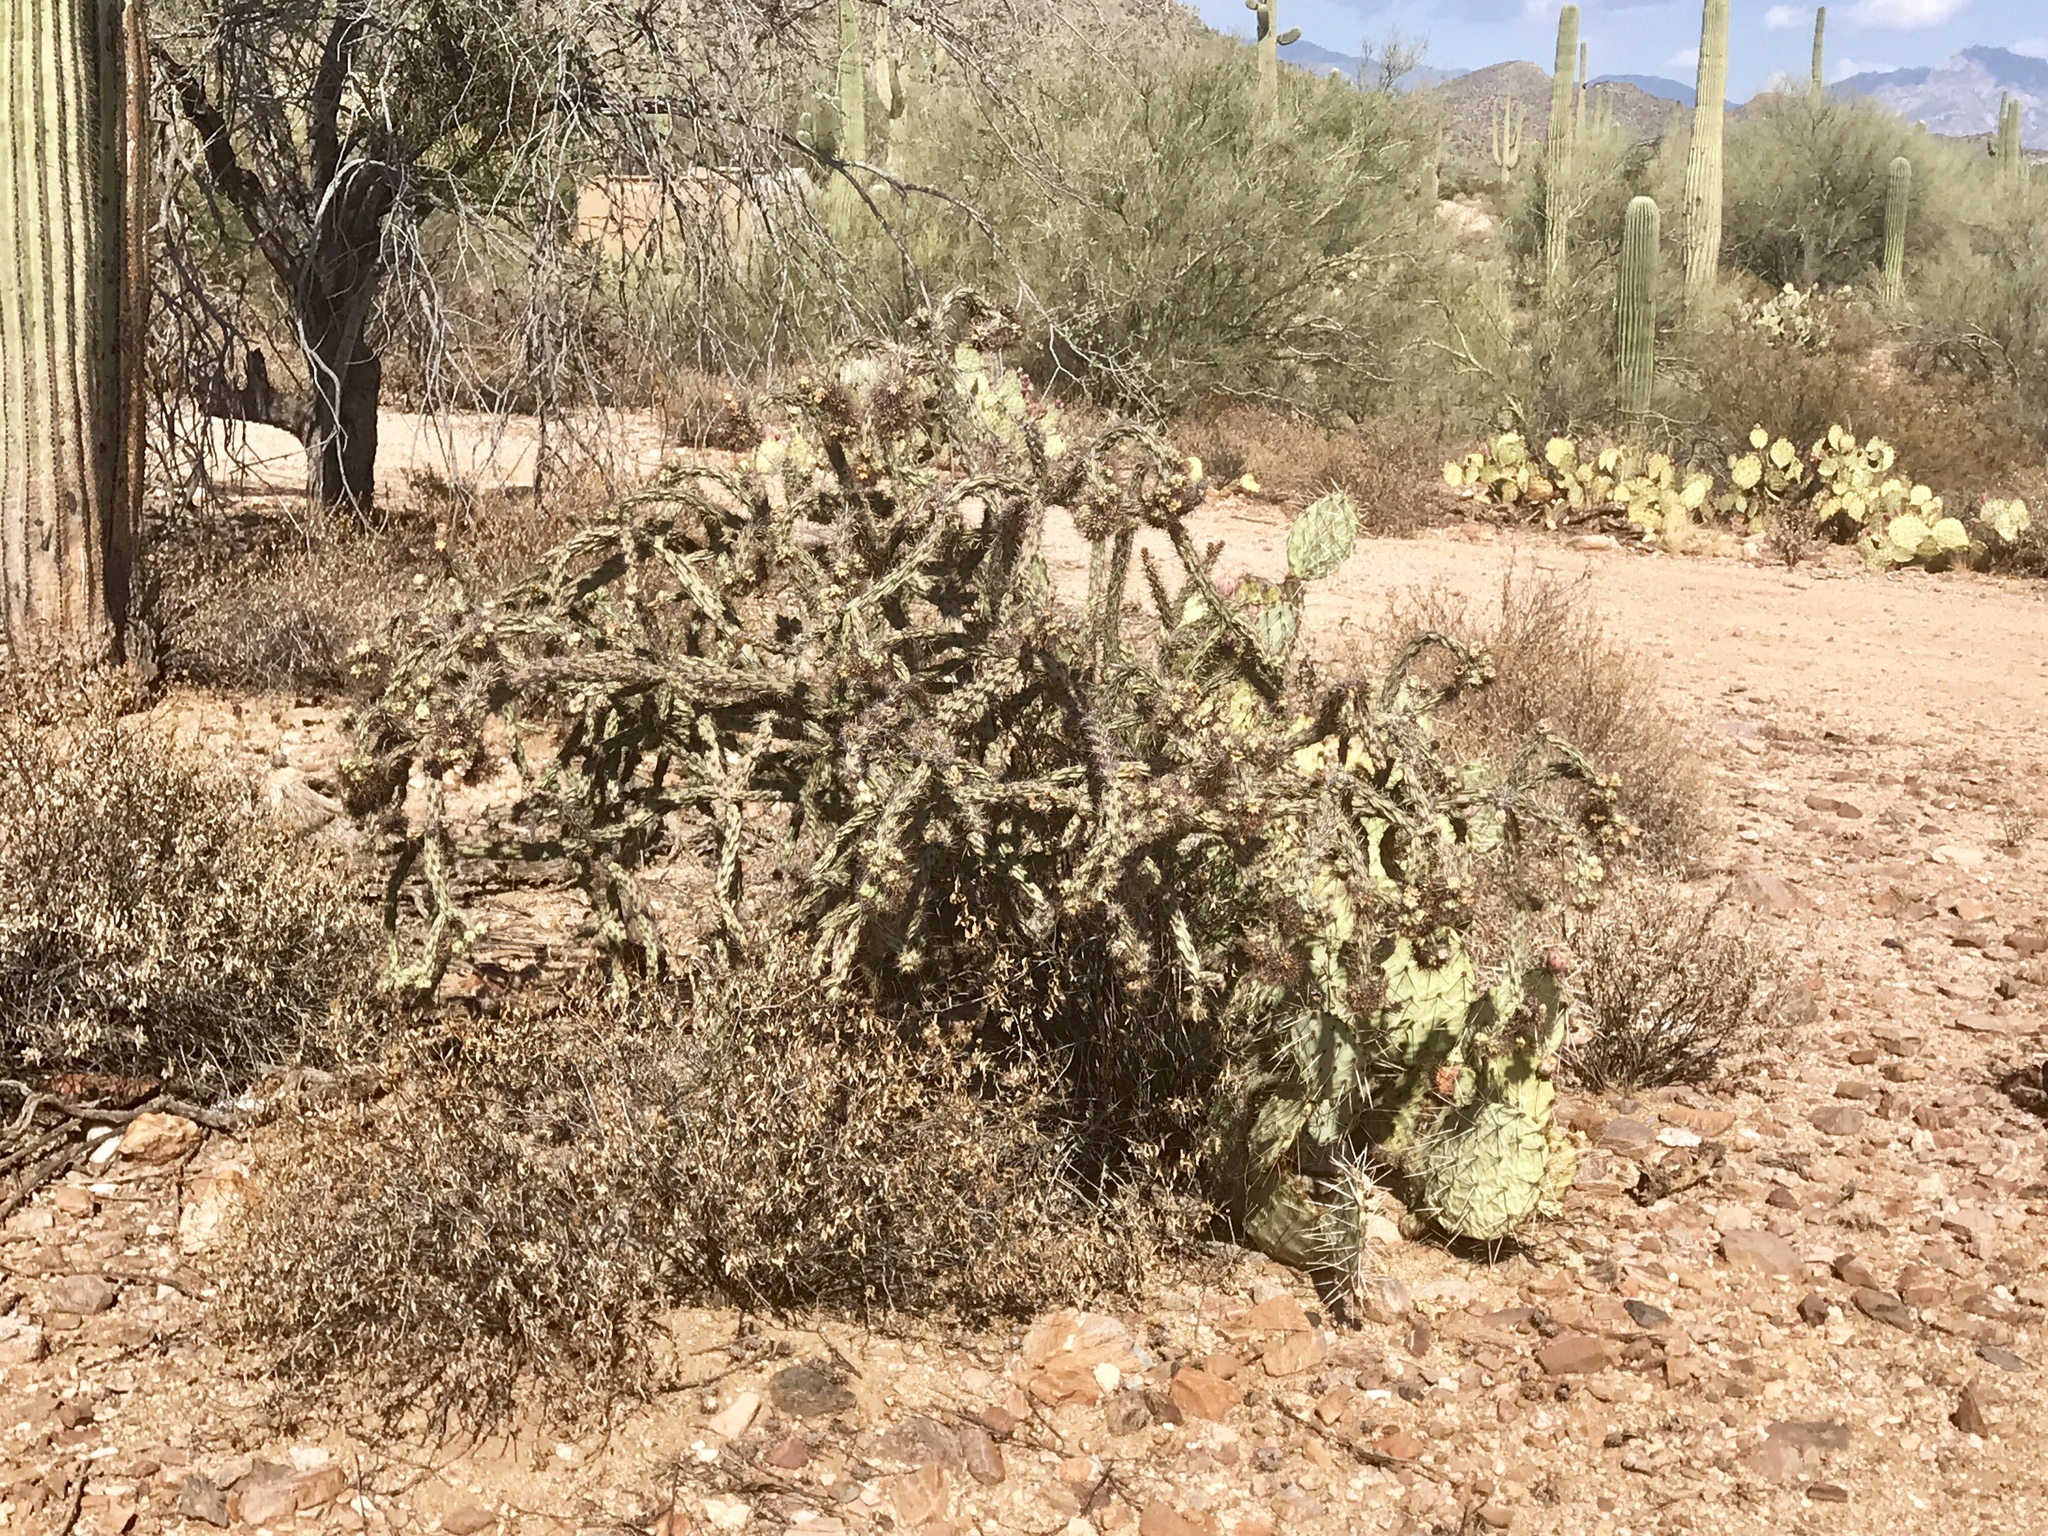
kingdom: Plantae
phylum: Tracheophyta
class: Magnoliopsida
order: Caryophyllales
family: Cactaceae
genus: Cylindropuntia
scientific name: Cylindropuntia acanthocarpa
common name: Buckhorn cholla
